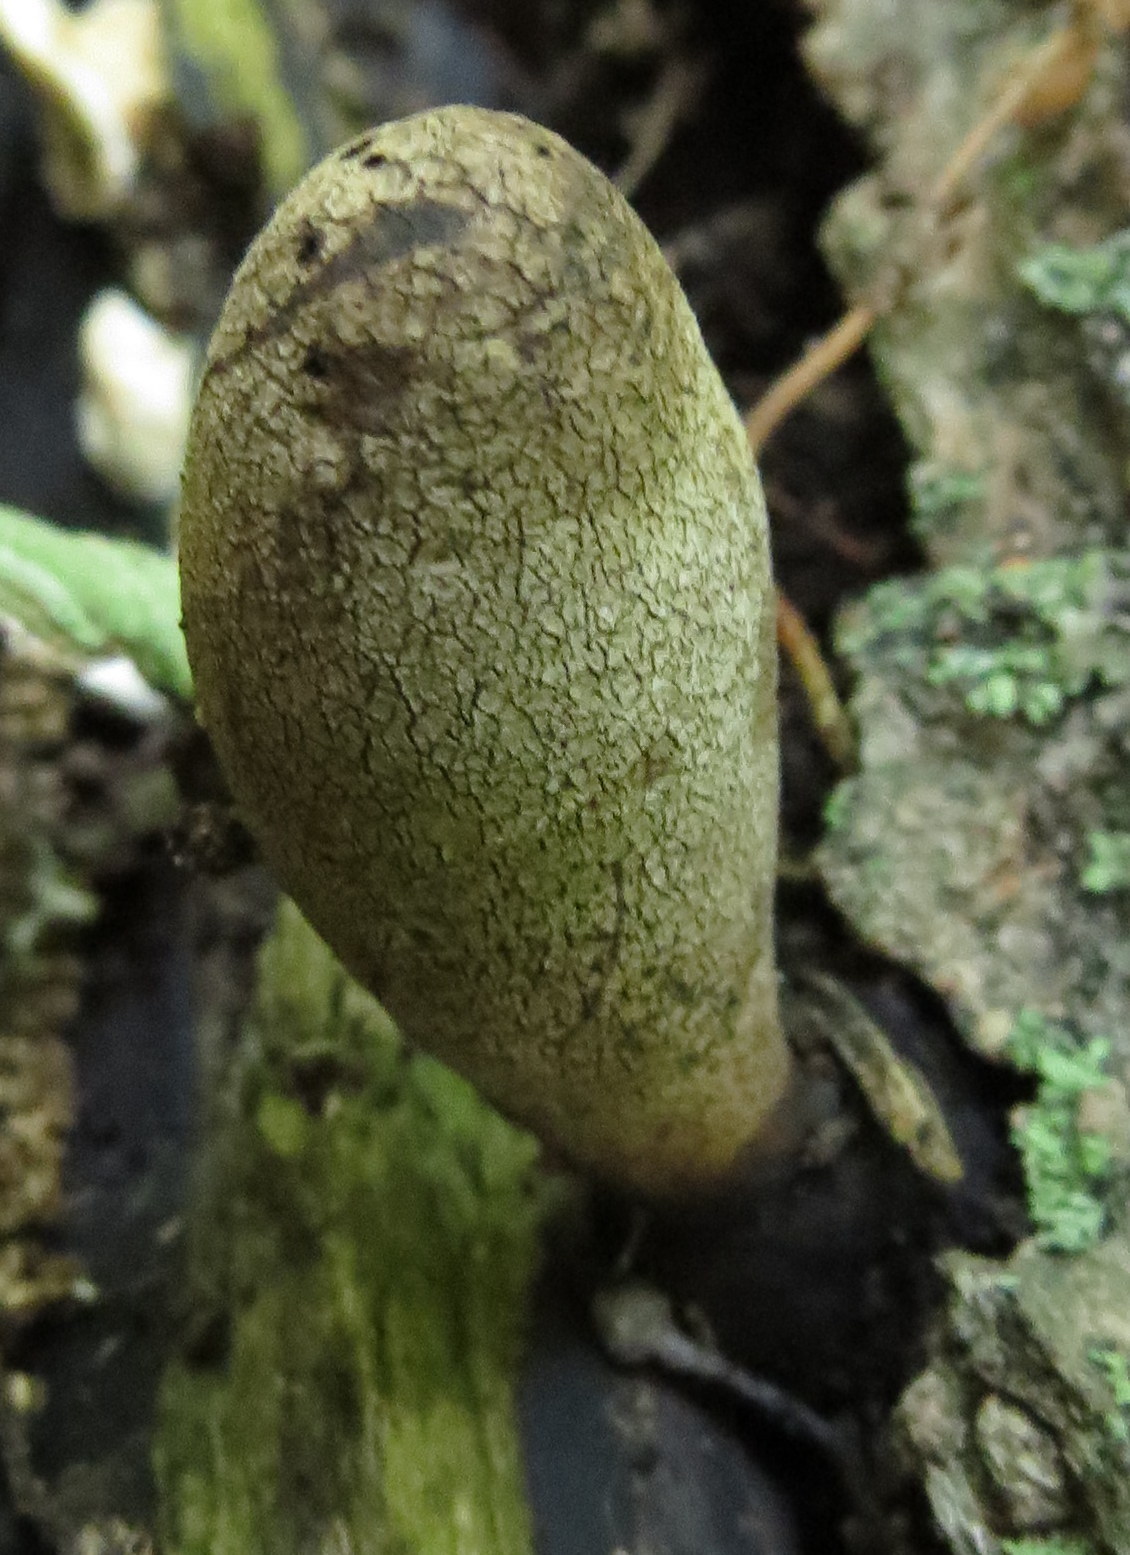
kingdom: Fungi
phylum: Ascomycota
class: Sordariomycetes
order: Xylariales
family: Xylariaceae
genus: Xylaria
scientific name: Xylaria
